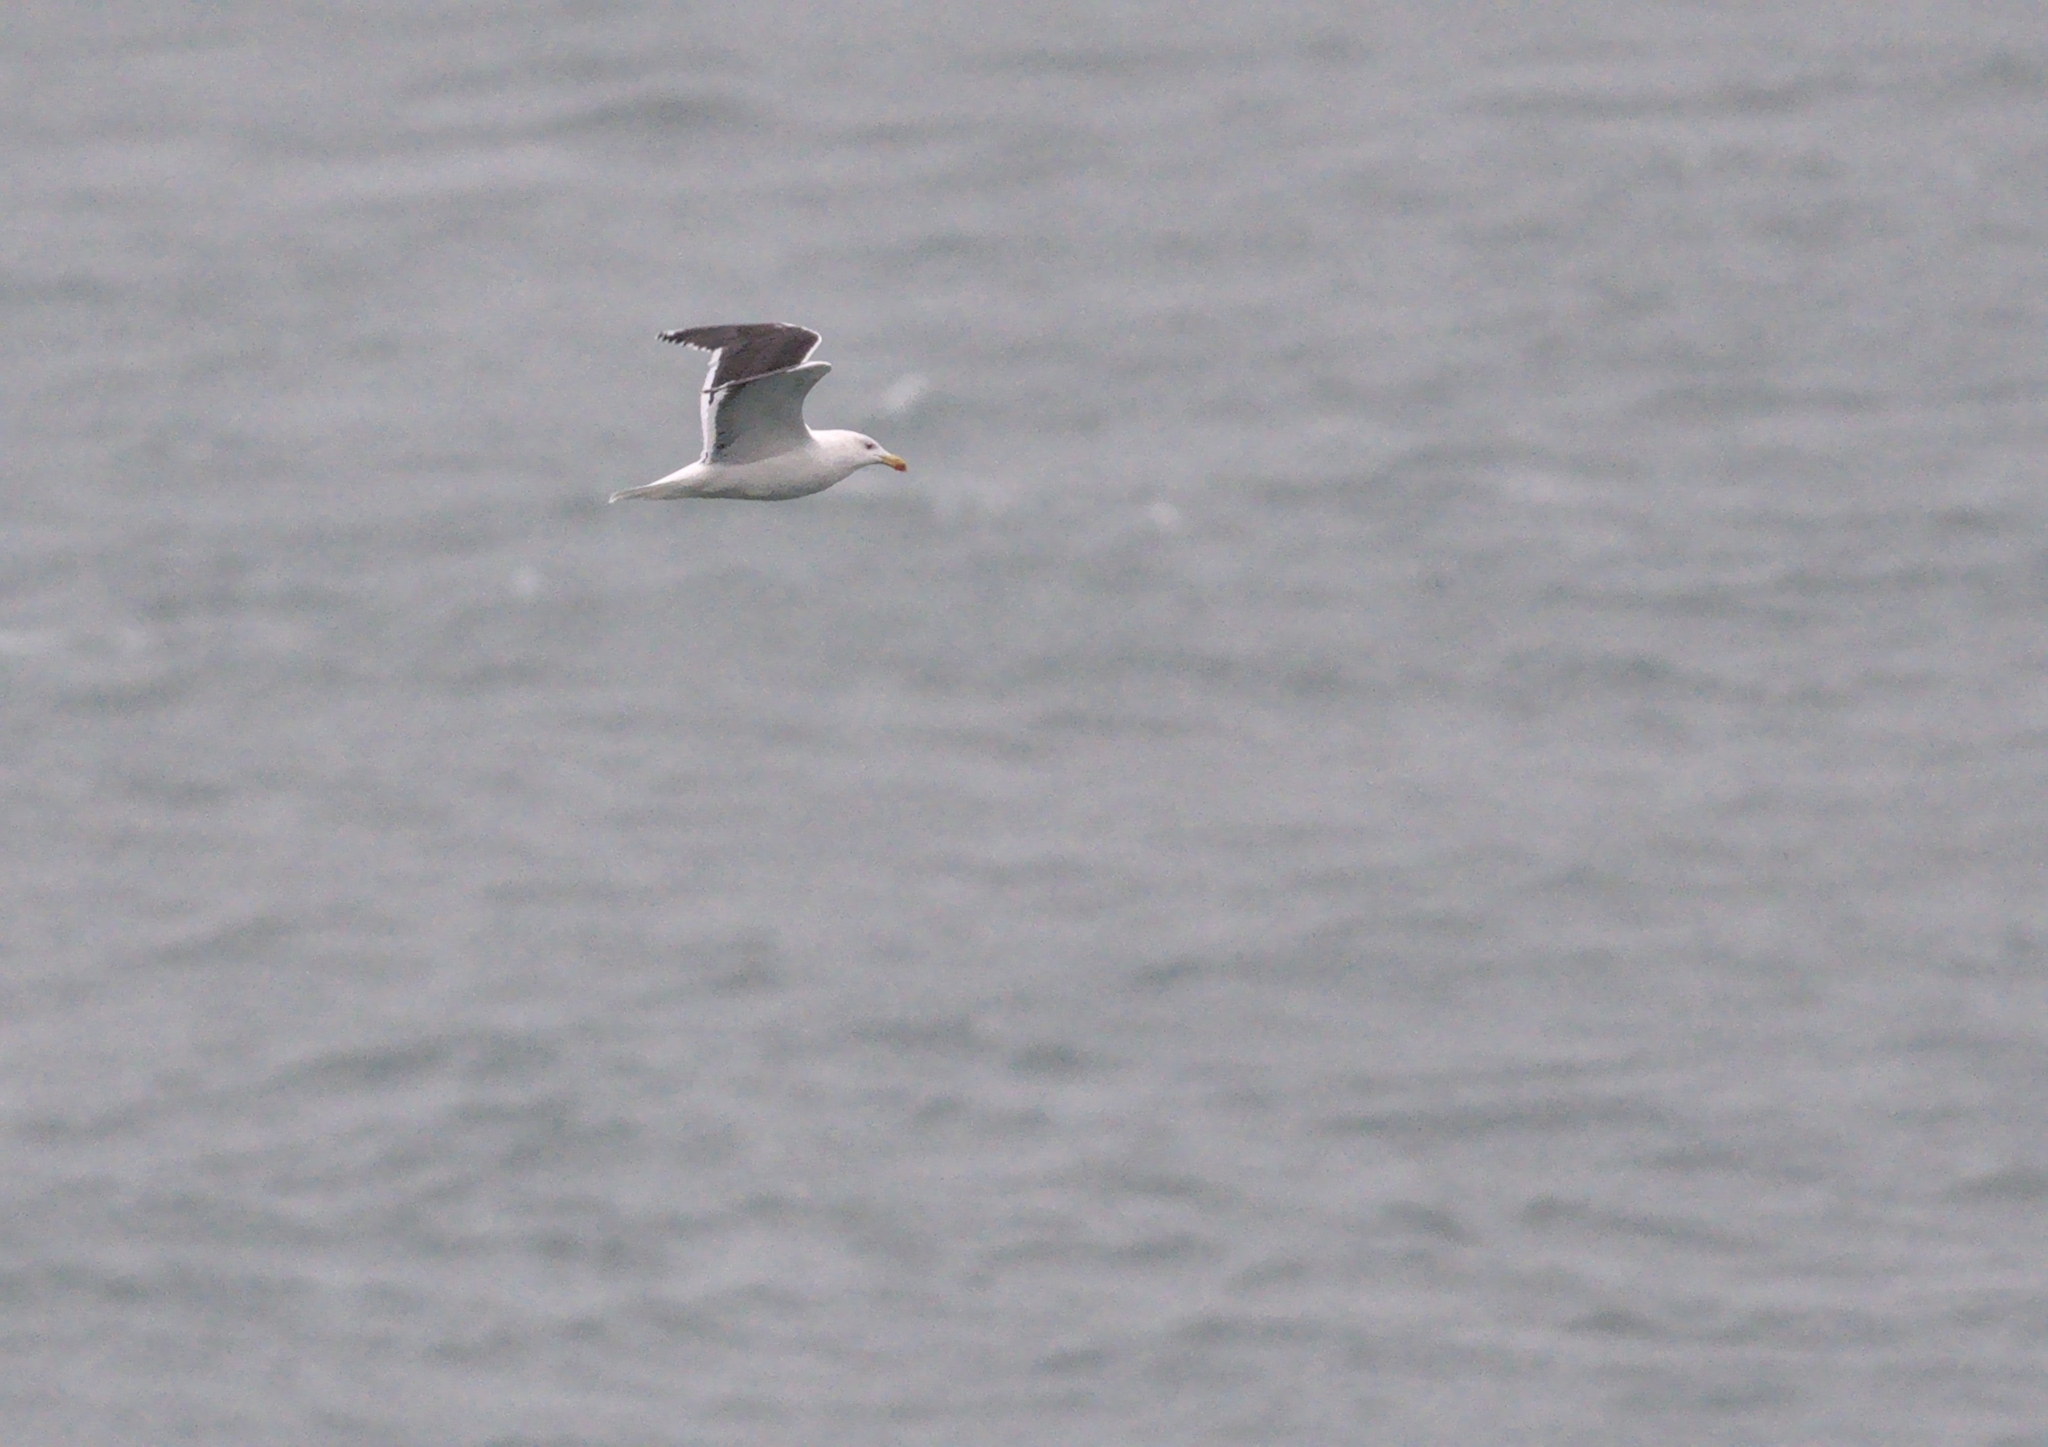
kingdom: Animalia
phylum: Chordata
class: Aves
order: Charadriiformes
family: Laridae
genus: Larus
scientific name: Larus marinus
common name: Great black-backed gull
